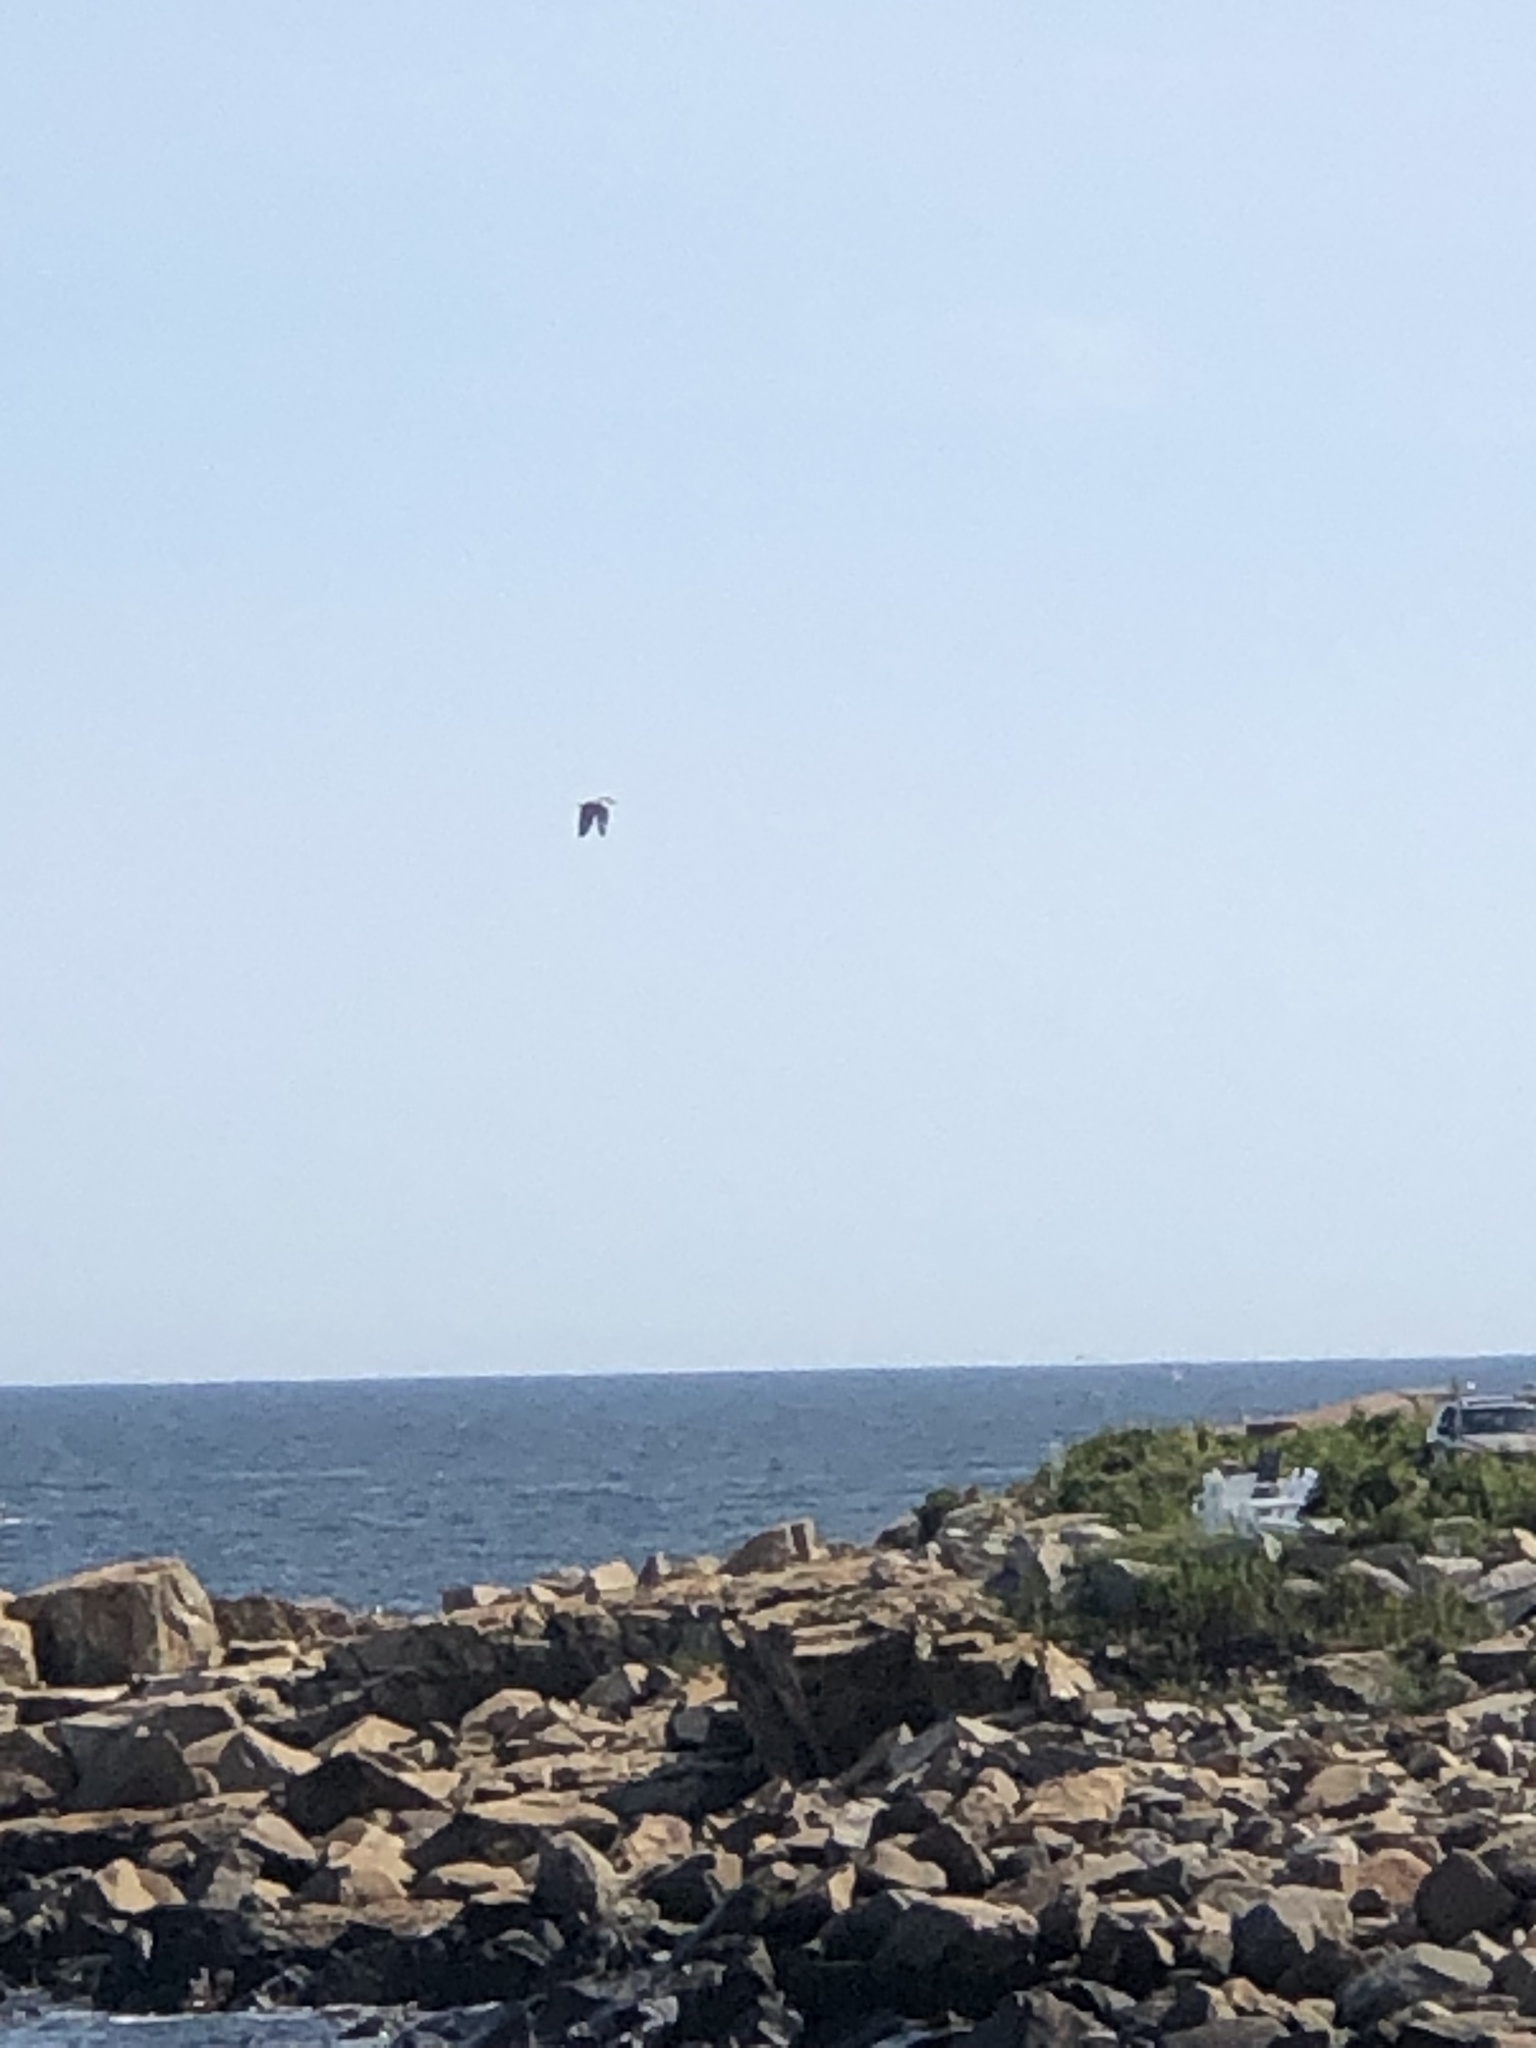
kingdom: Animalia
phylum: Chordata
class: Aves
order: Coraciiformes
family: Alcedinidae
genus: Megaceryle
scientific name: Megaceryle alcyon
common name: Belted kingfisher
